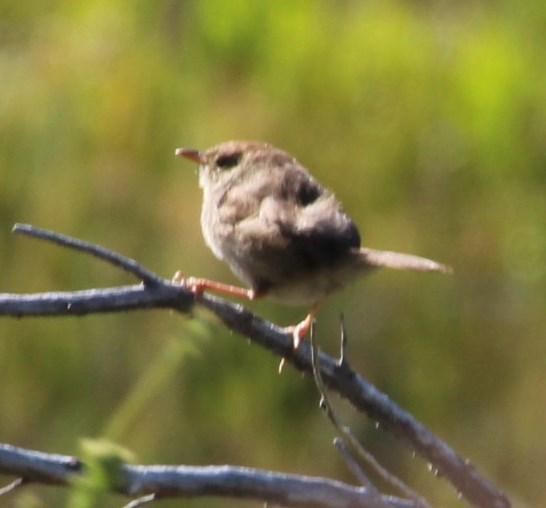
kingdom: Animalia
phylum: Chordata
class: Aves
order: Passeriformes
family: Cisticolidae
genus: Cisticola
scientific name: Cisticola fulvicapilla
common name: Neddicky
